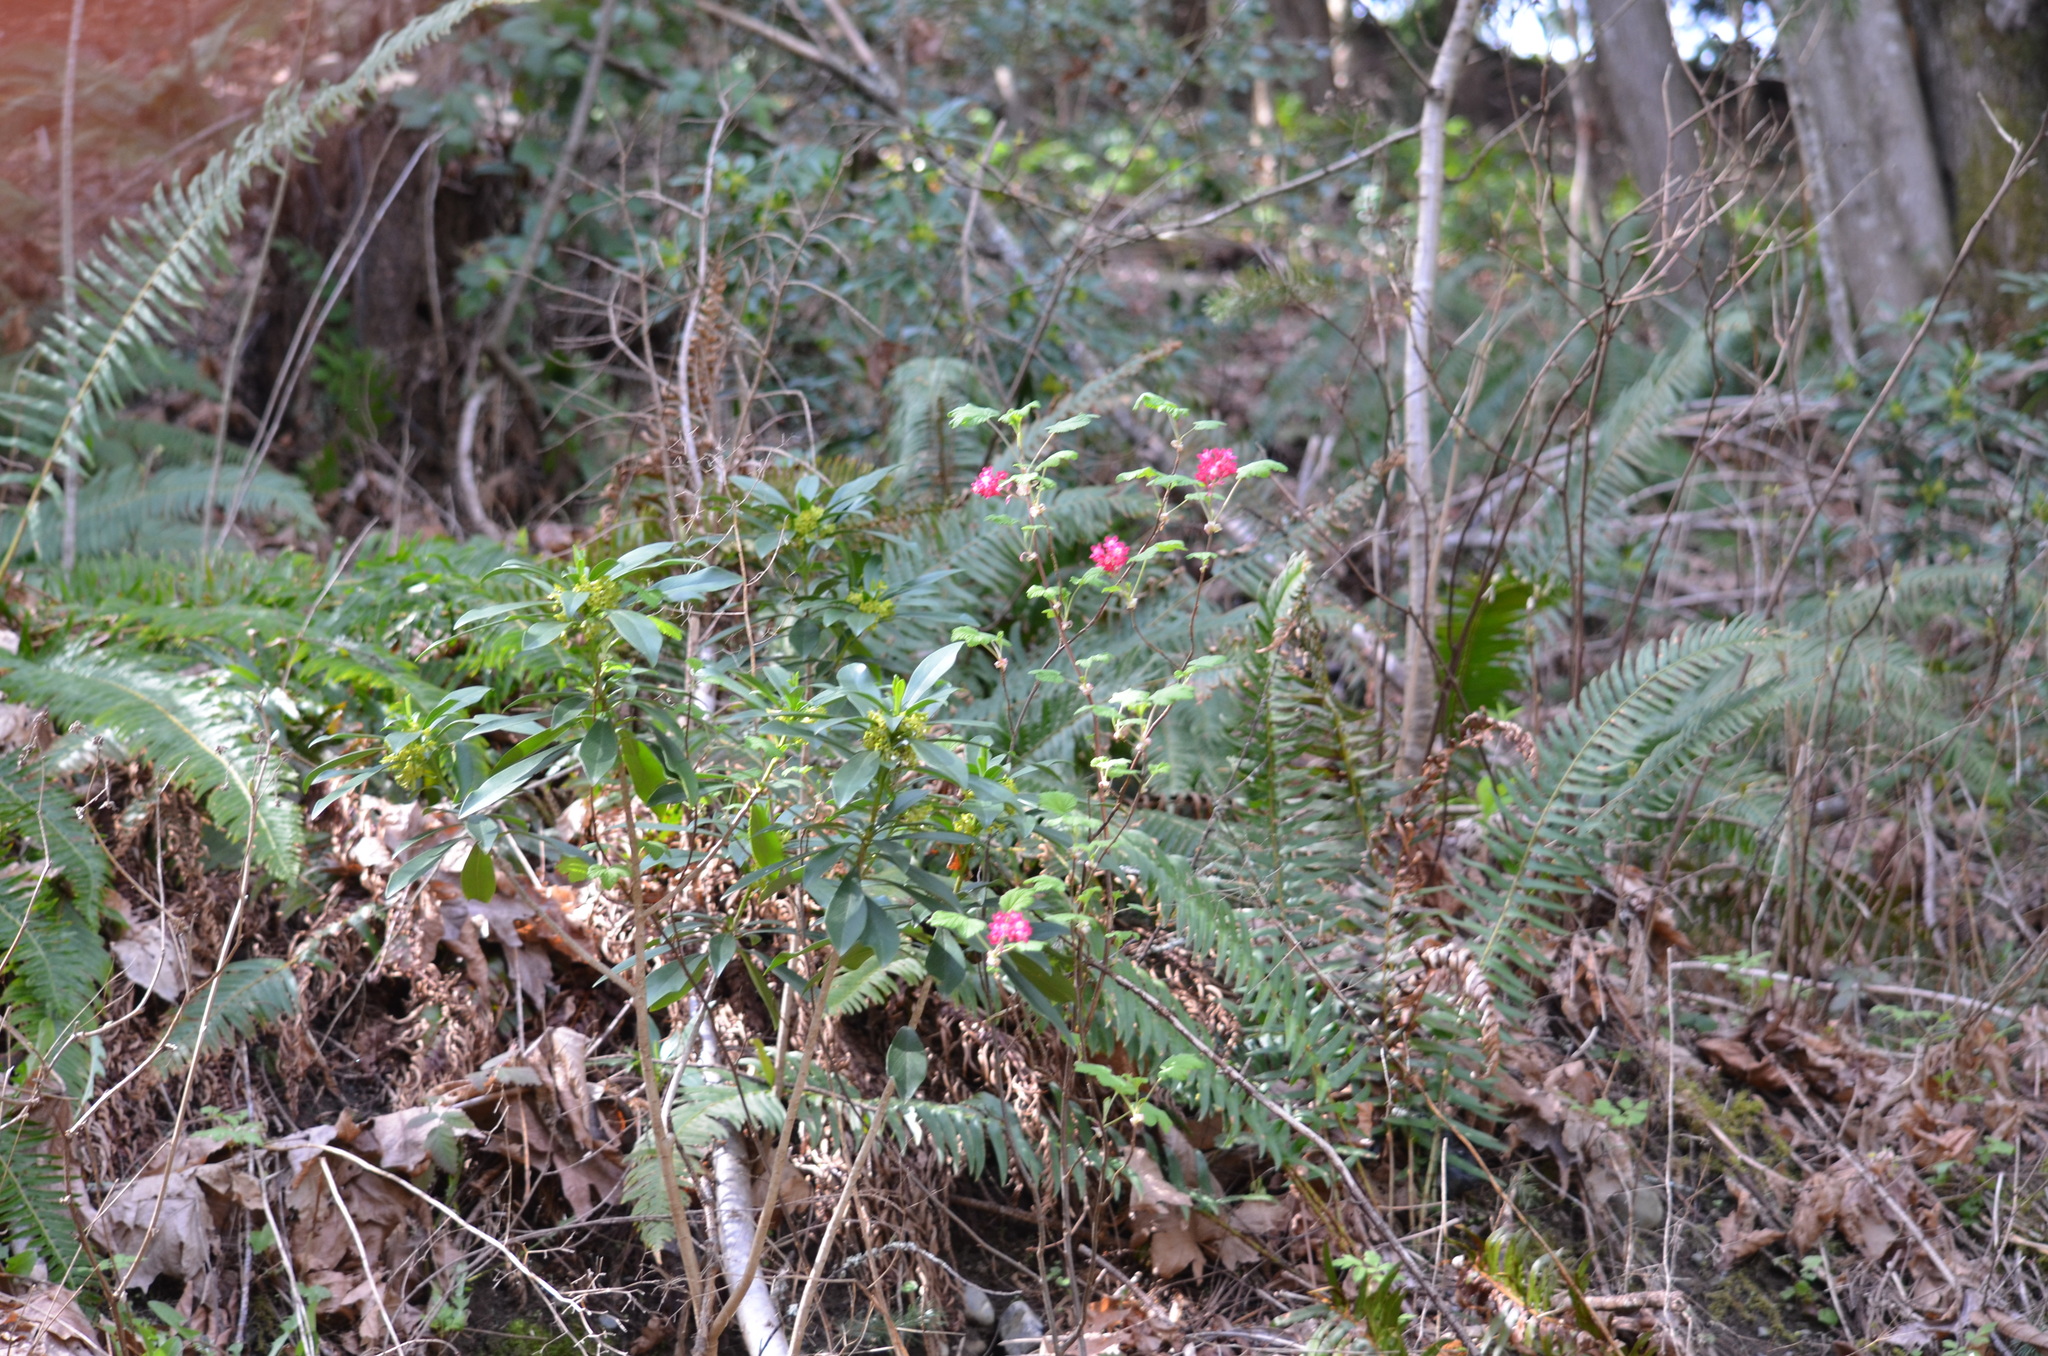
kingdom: Plantae
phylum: Tracheophyta
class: Magnoliopsida
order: Saxifragales
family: Grossulariaceae
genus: Ribes
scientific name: Ribes sanguineum
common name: Flowering currant
